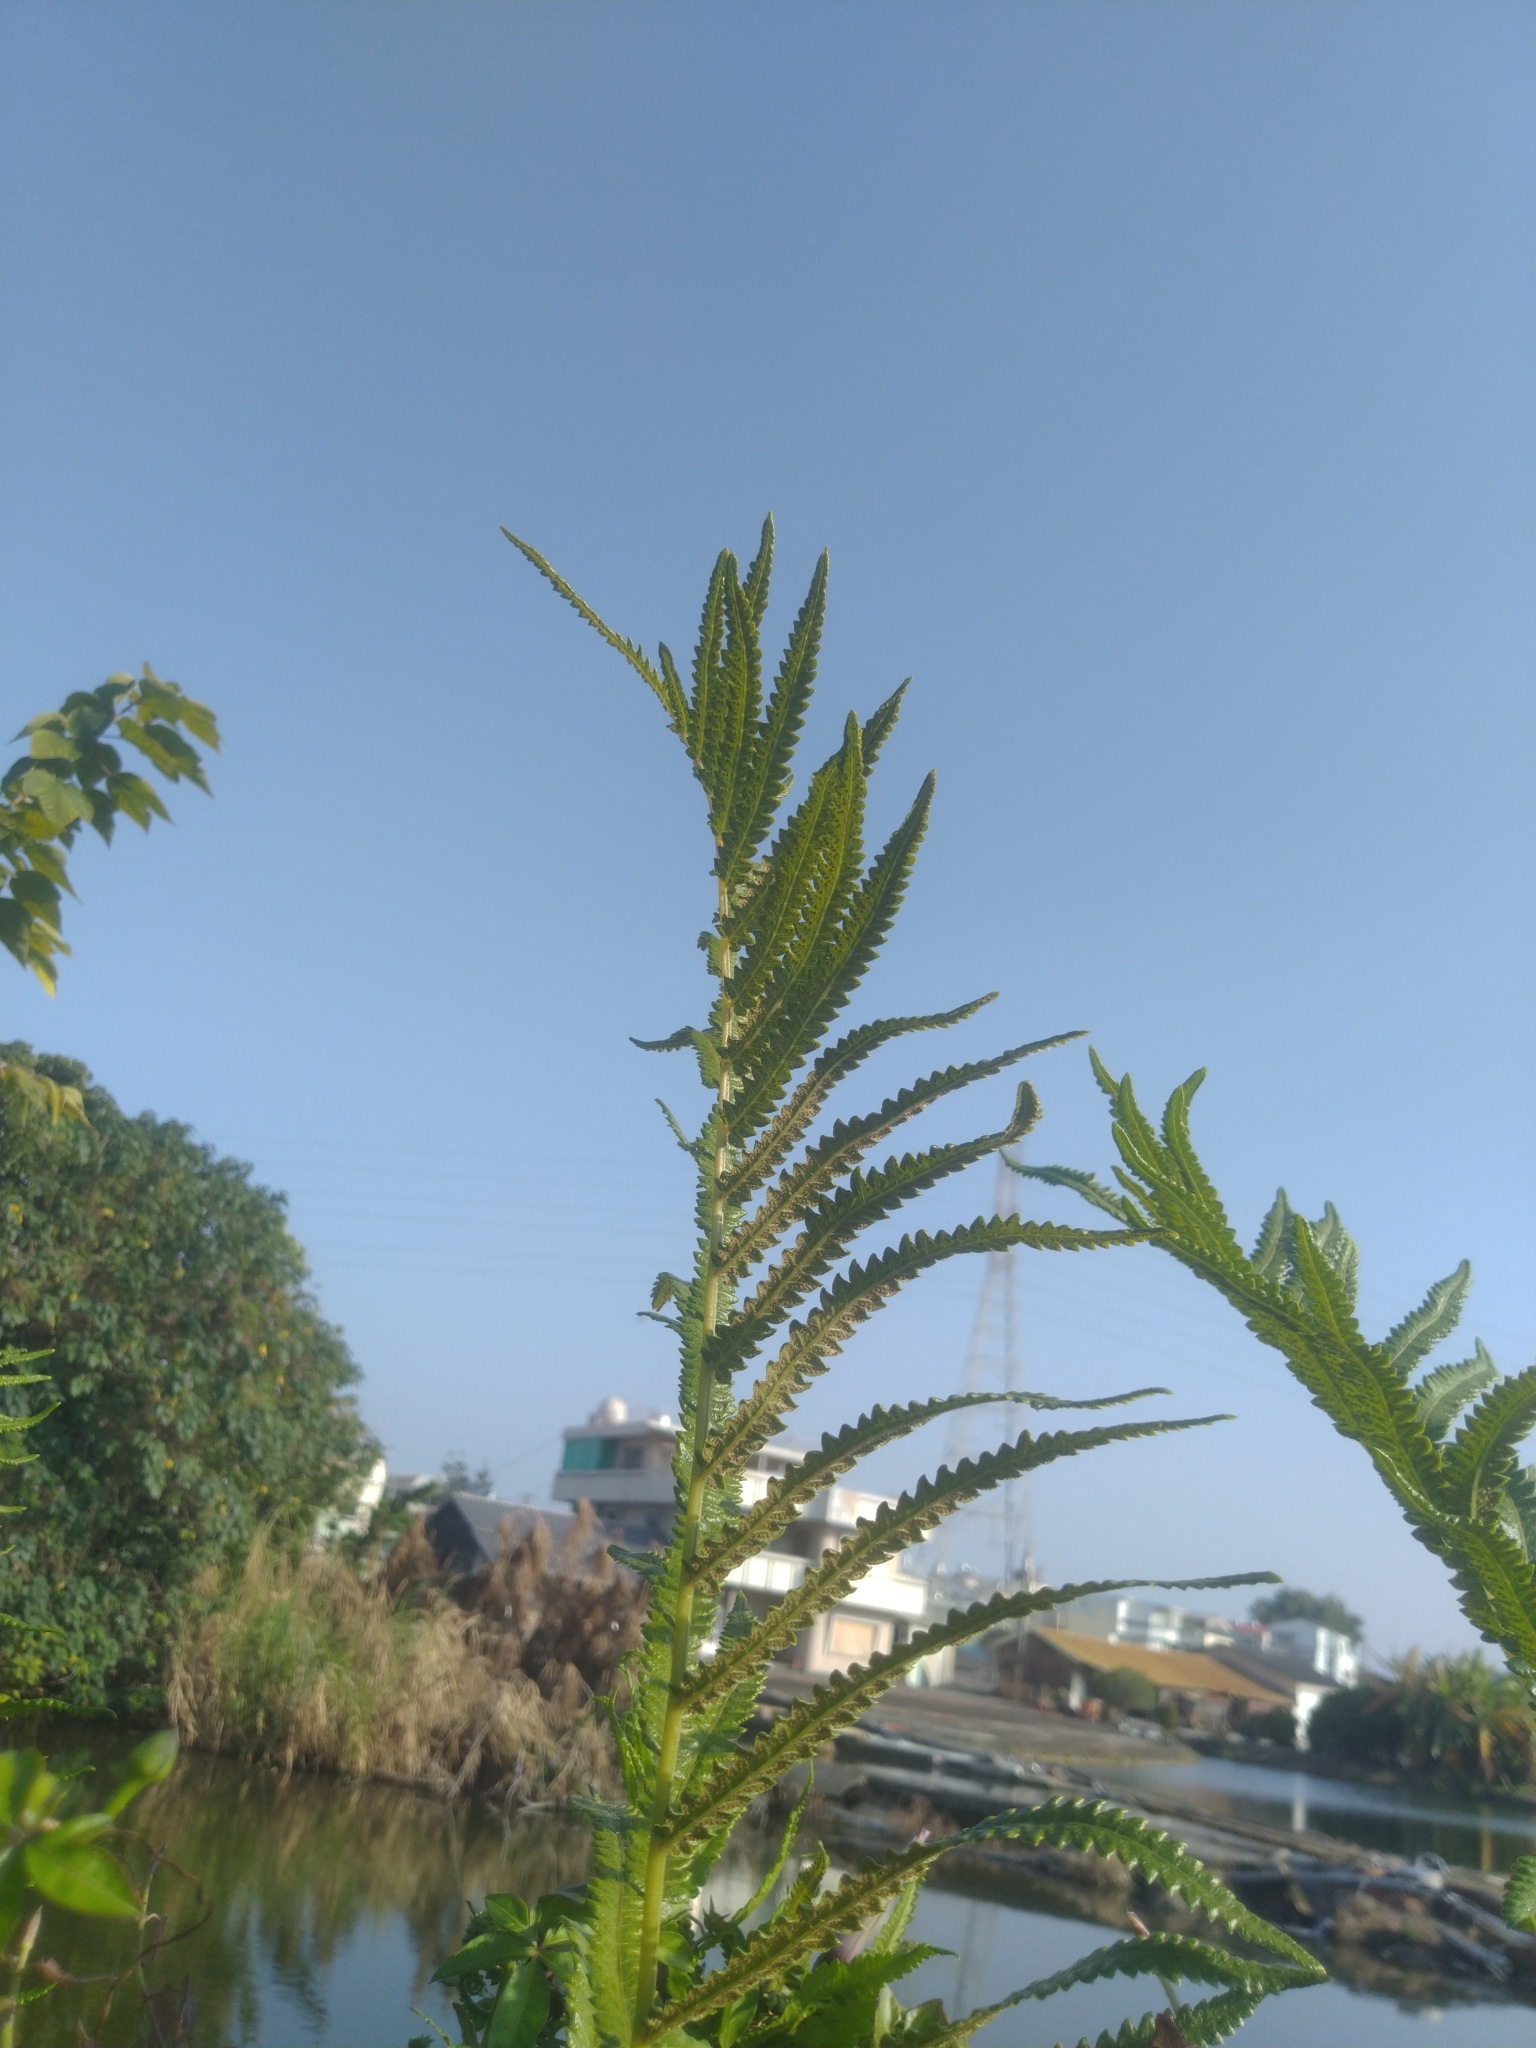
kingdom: Plantae
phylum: Tracheophyta
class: Polypodiopsida
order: Polypodiales
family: Thelypteridaceae
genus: Cyclosorus
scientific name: Cyclosorus interruptus
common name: Neke fern
